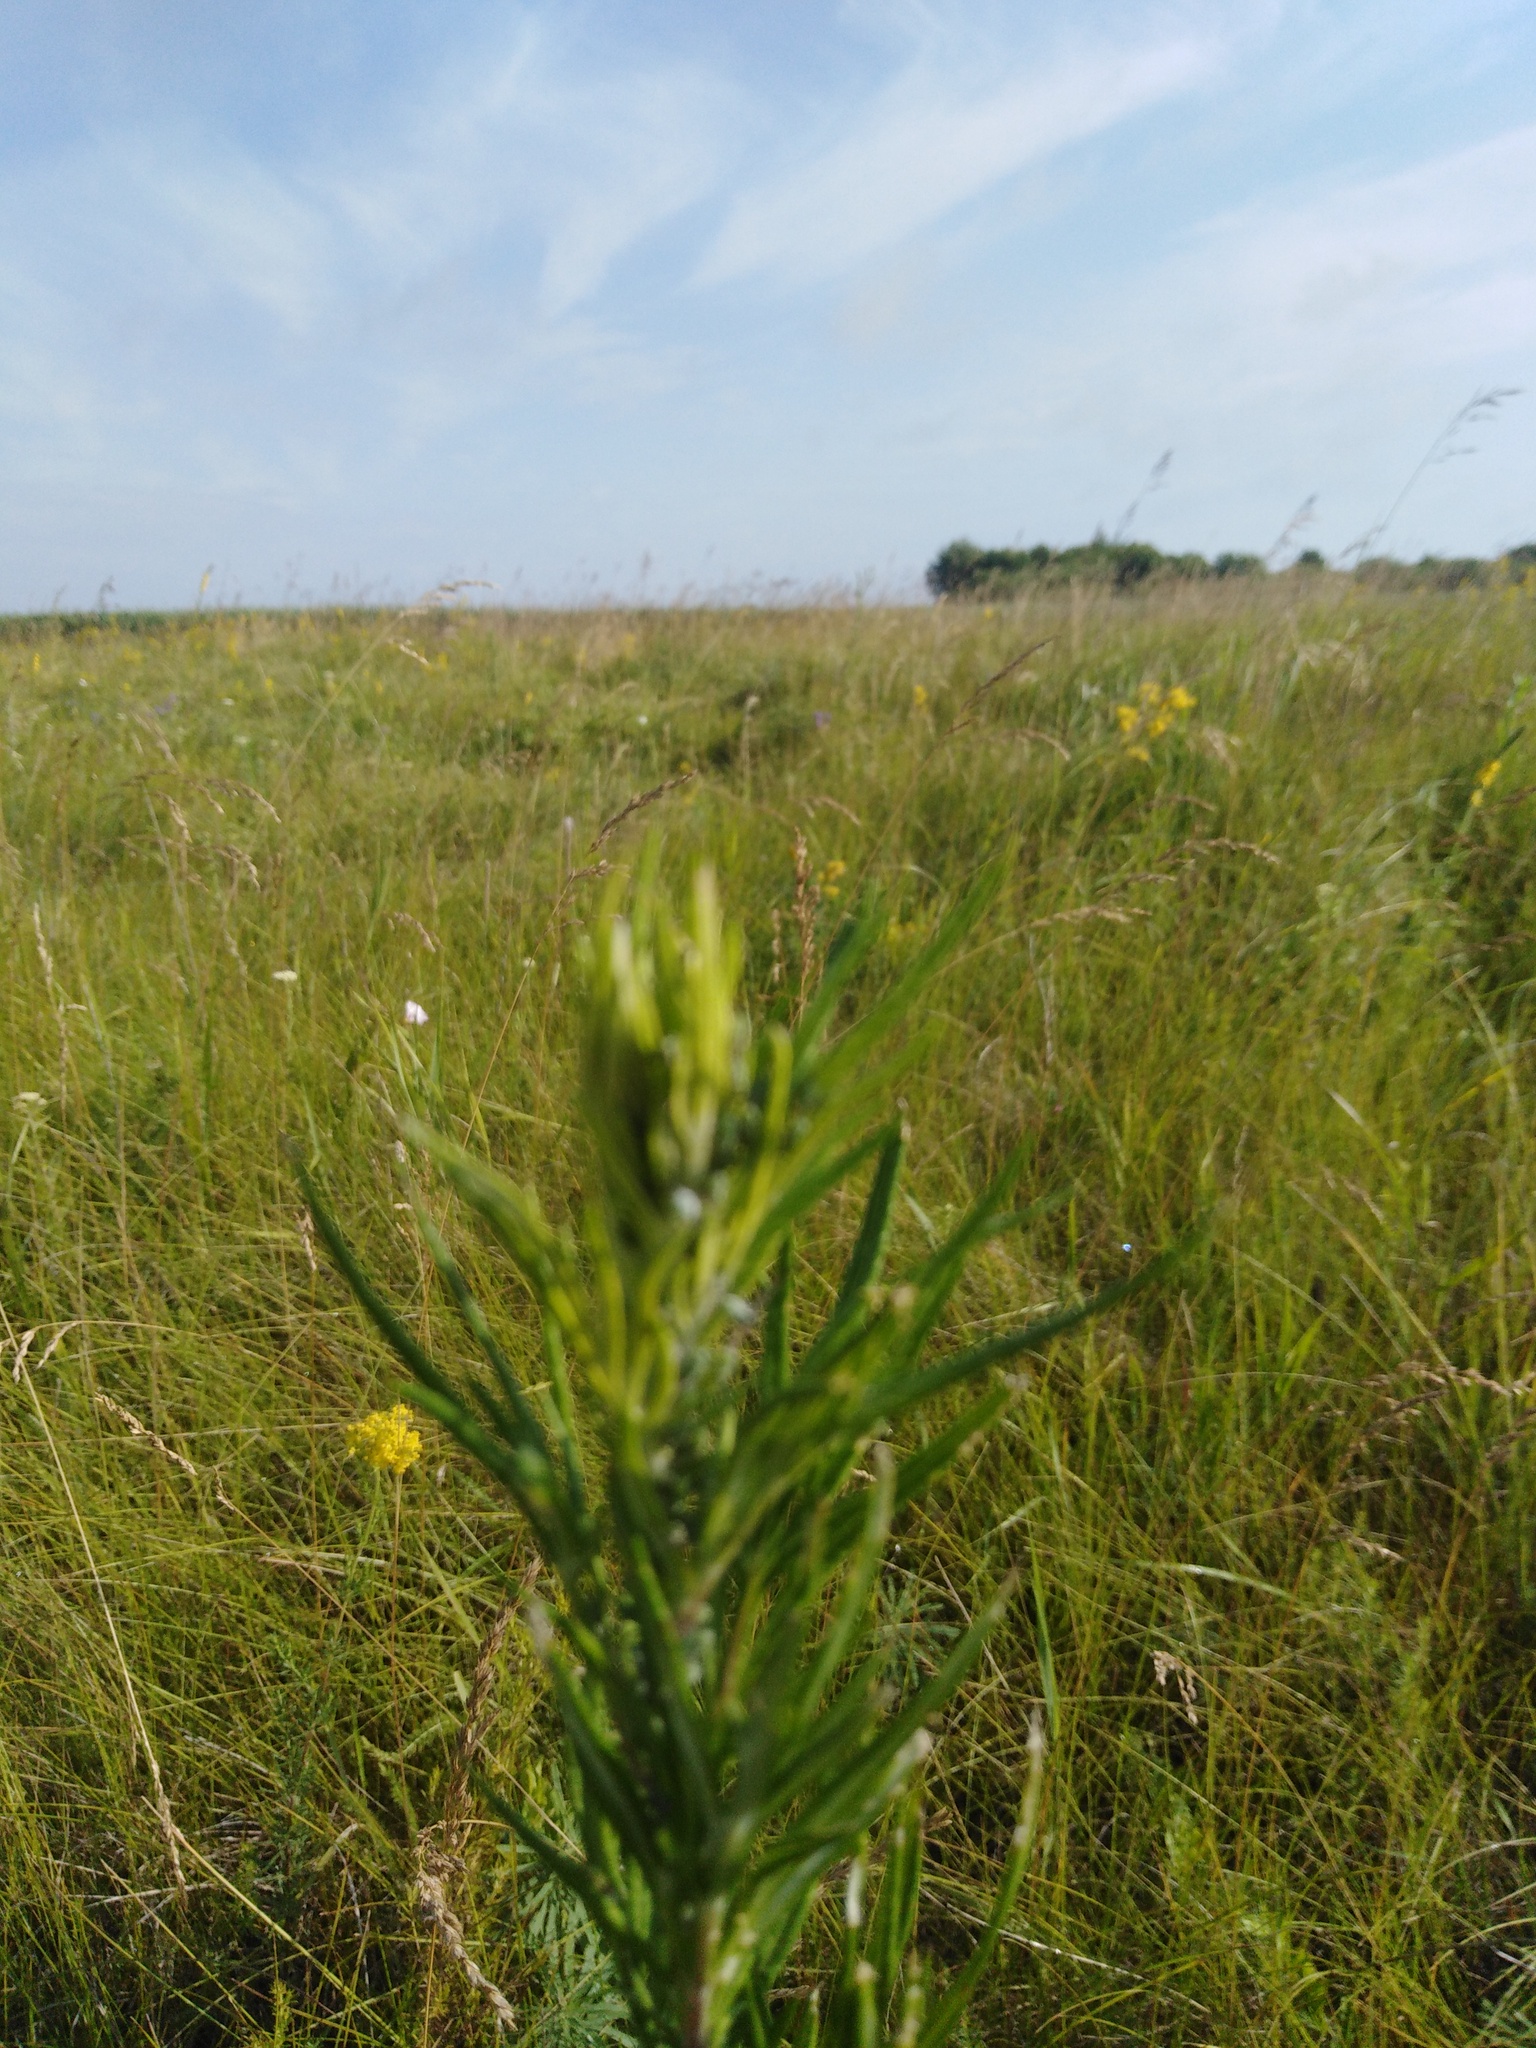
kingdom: Plantae
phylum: Tracheophyta
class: Magnoliopsida
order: Asterales
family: Asteraceae
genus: Jacobaea
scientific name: Jacobaea erucifolia
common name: Hoary ragwort
